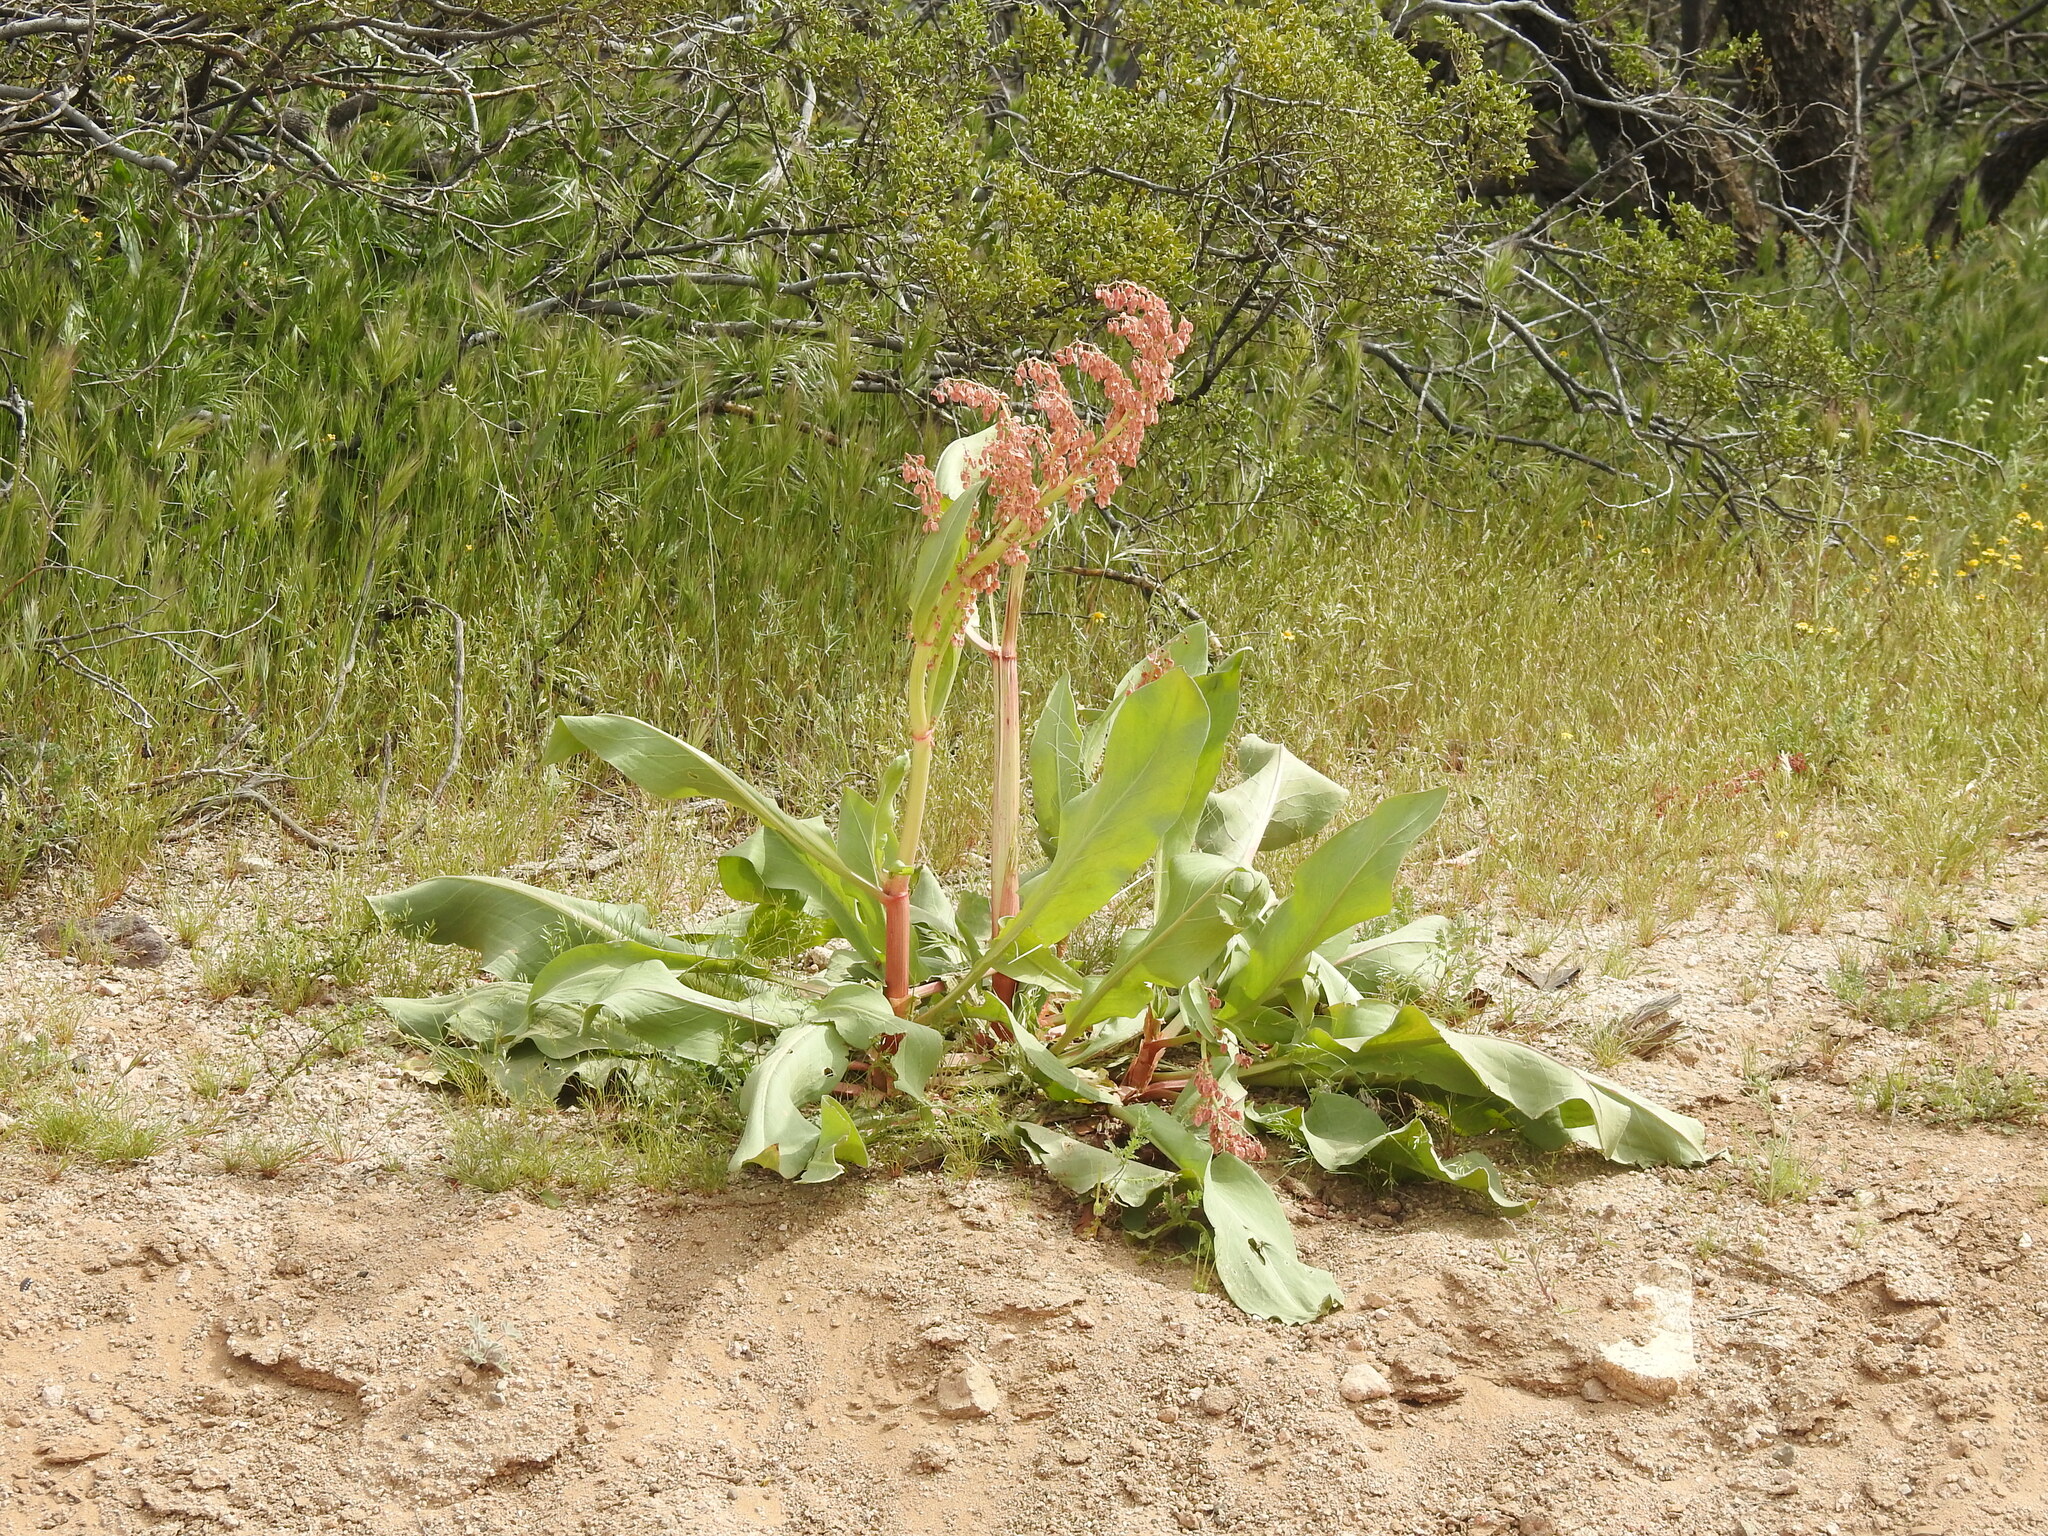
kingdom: Plantae
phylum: Tracheophyta
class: Magnoliopsida
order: Caryophyllales
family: Polygonaceae
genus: Rumex
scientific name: Rumex hymenosepalus
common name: Ganagra
